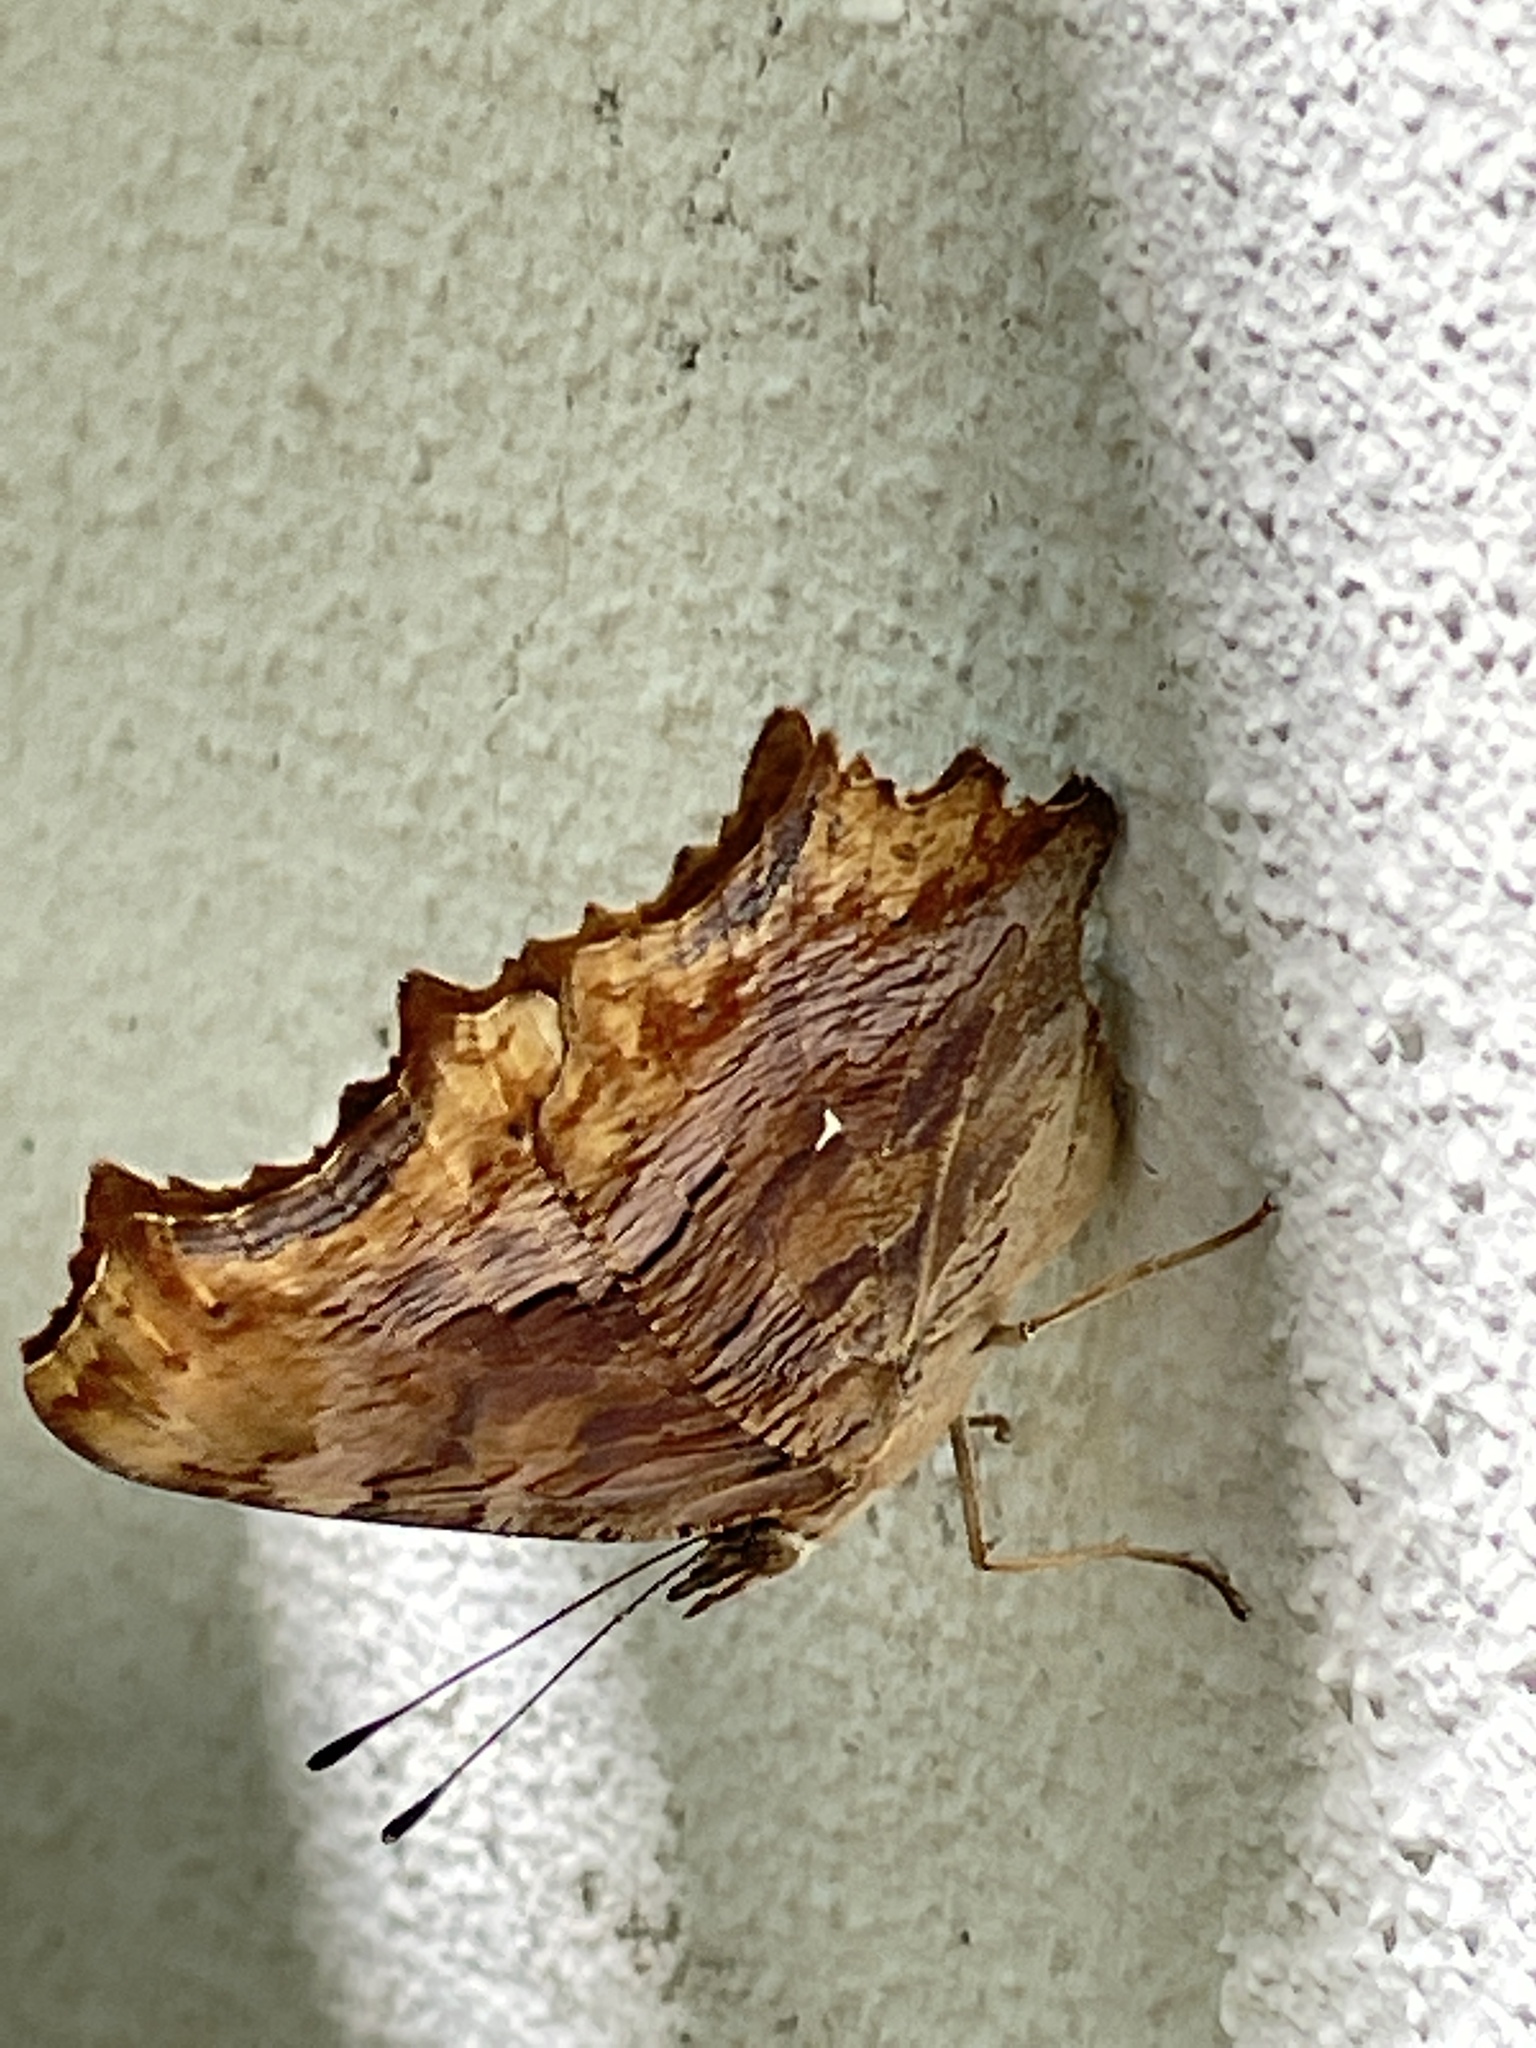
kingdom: Animalia
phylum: Arthropoda
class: Insecta
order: Lepidoptera
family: Nymphalidae
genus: Polygonia
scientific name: Polygonia egea
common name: Southern comma
